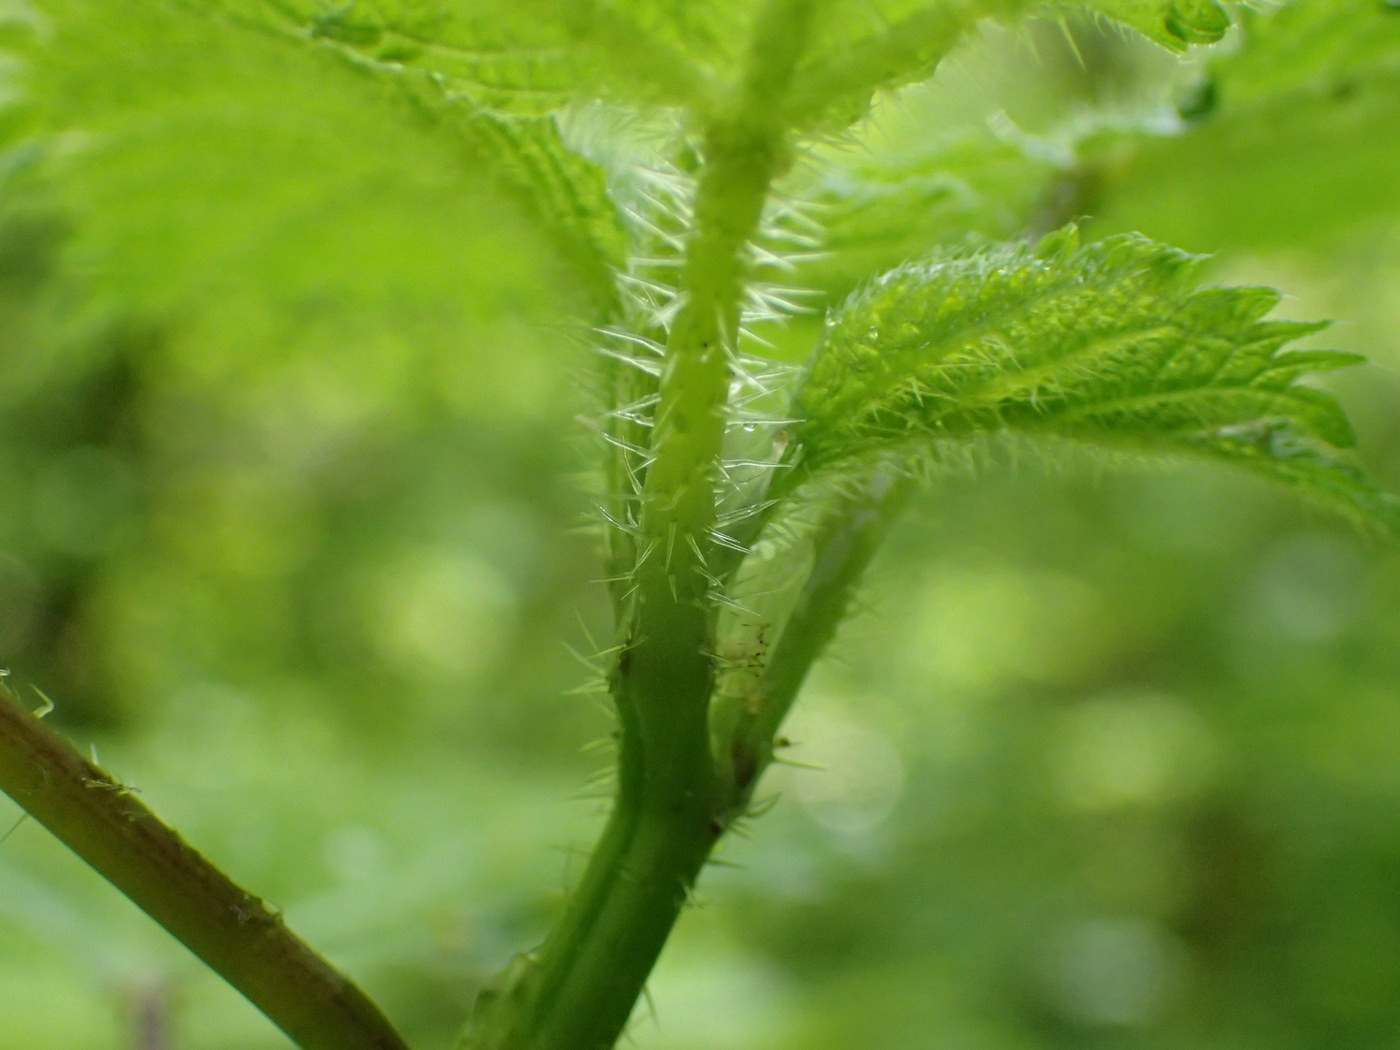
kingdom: Plantae
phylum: Tracheophyta
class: Magnoliopsida
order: Rosales
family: Urticaceae
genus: Laportea
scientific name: Laportea canadensis
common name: Canada nettle
